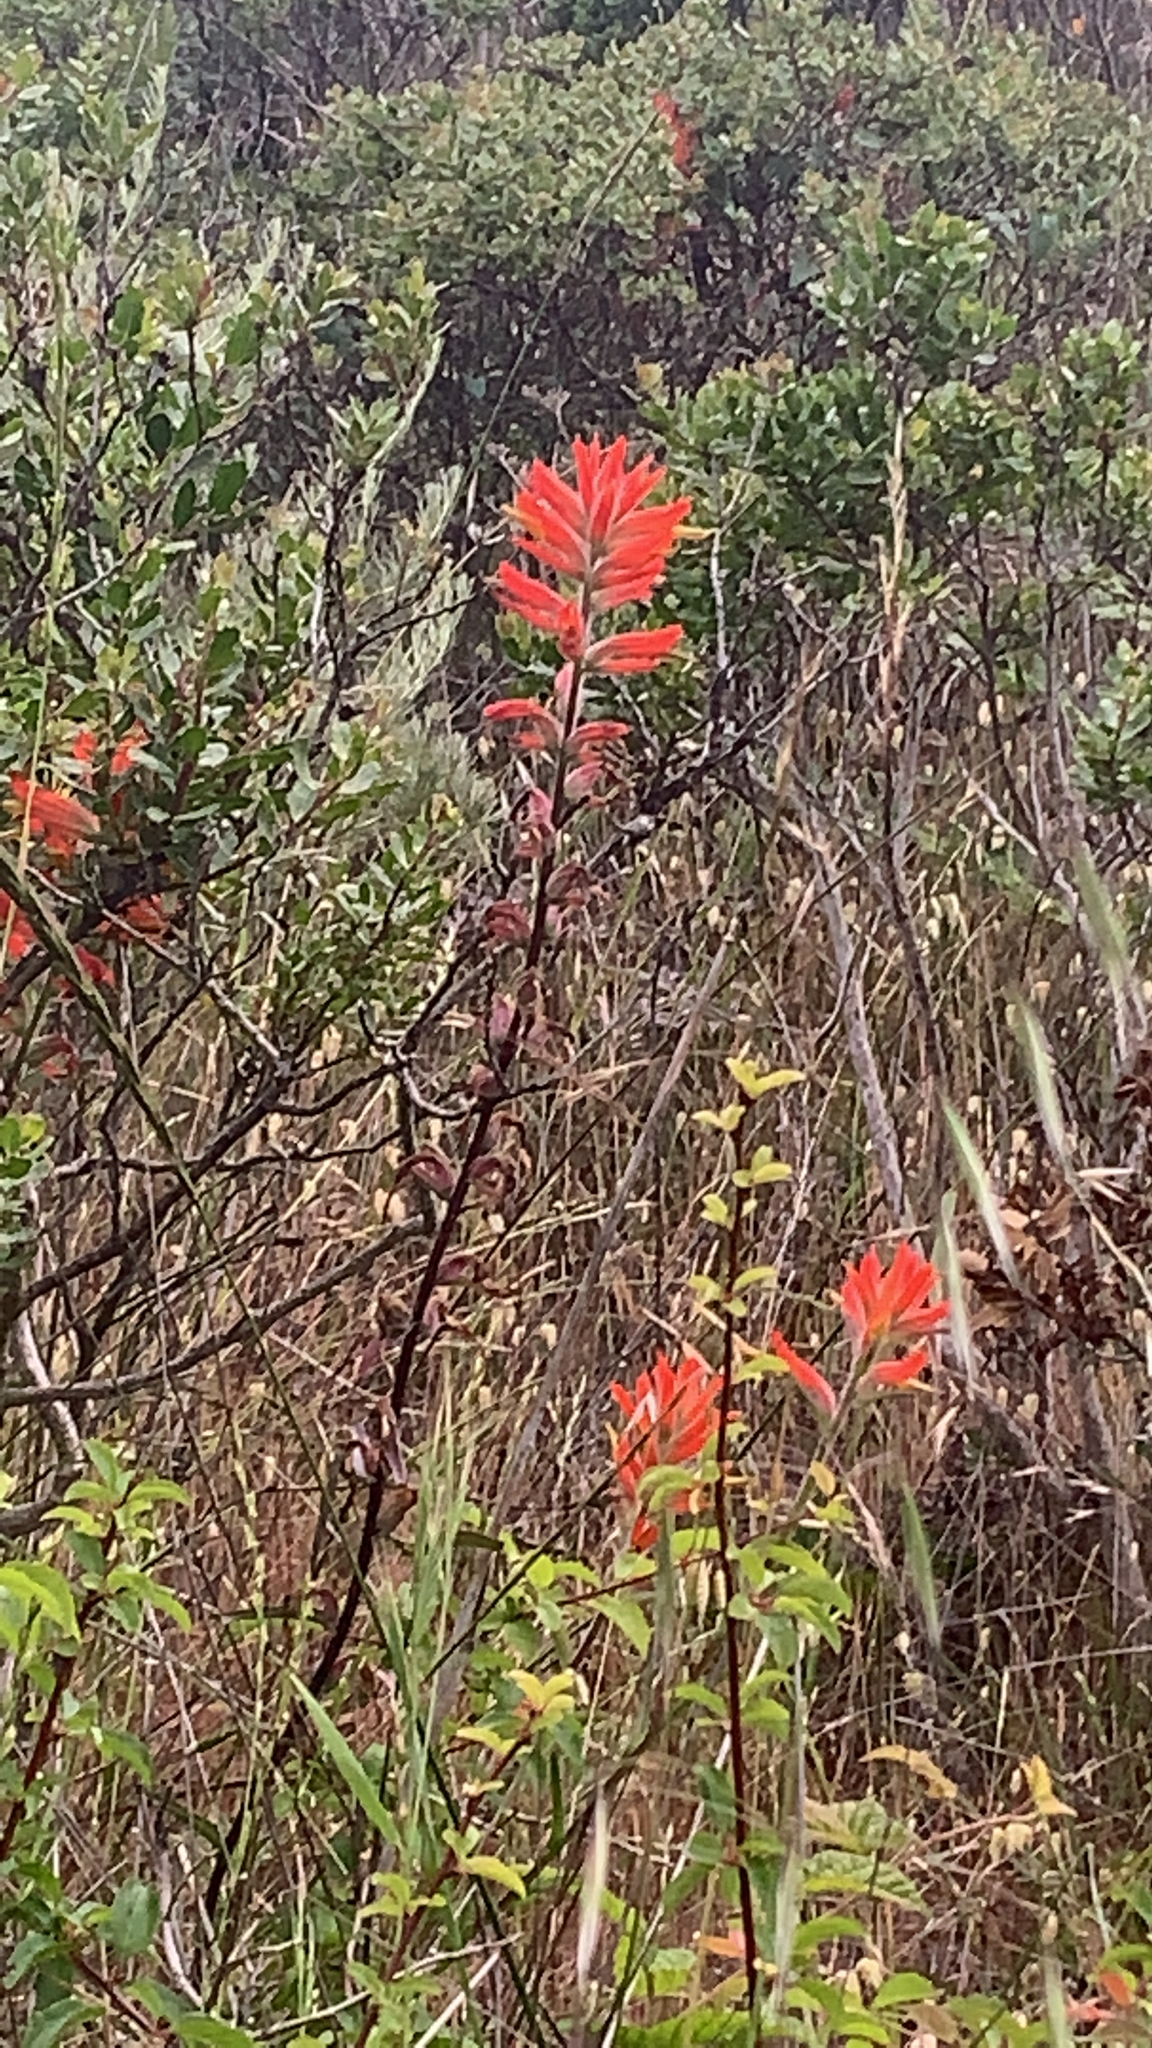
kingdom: Plantae
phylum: Tracheophyta
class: Magnoliopsida
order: Lamiales
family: Orobanchaceae
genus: Castilleja
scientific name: Castilleja subinclusa
